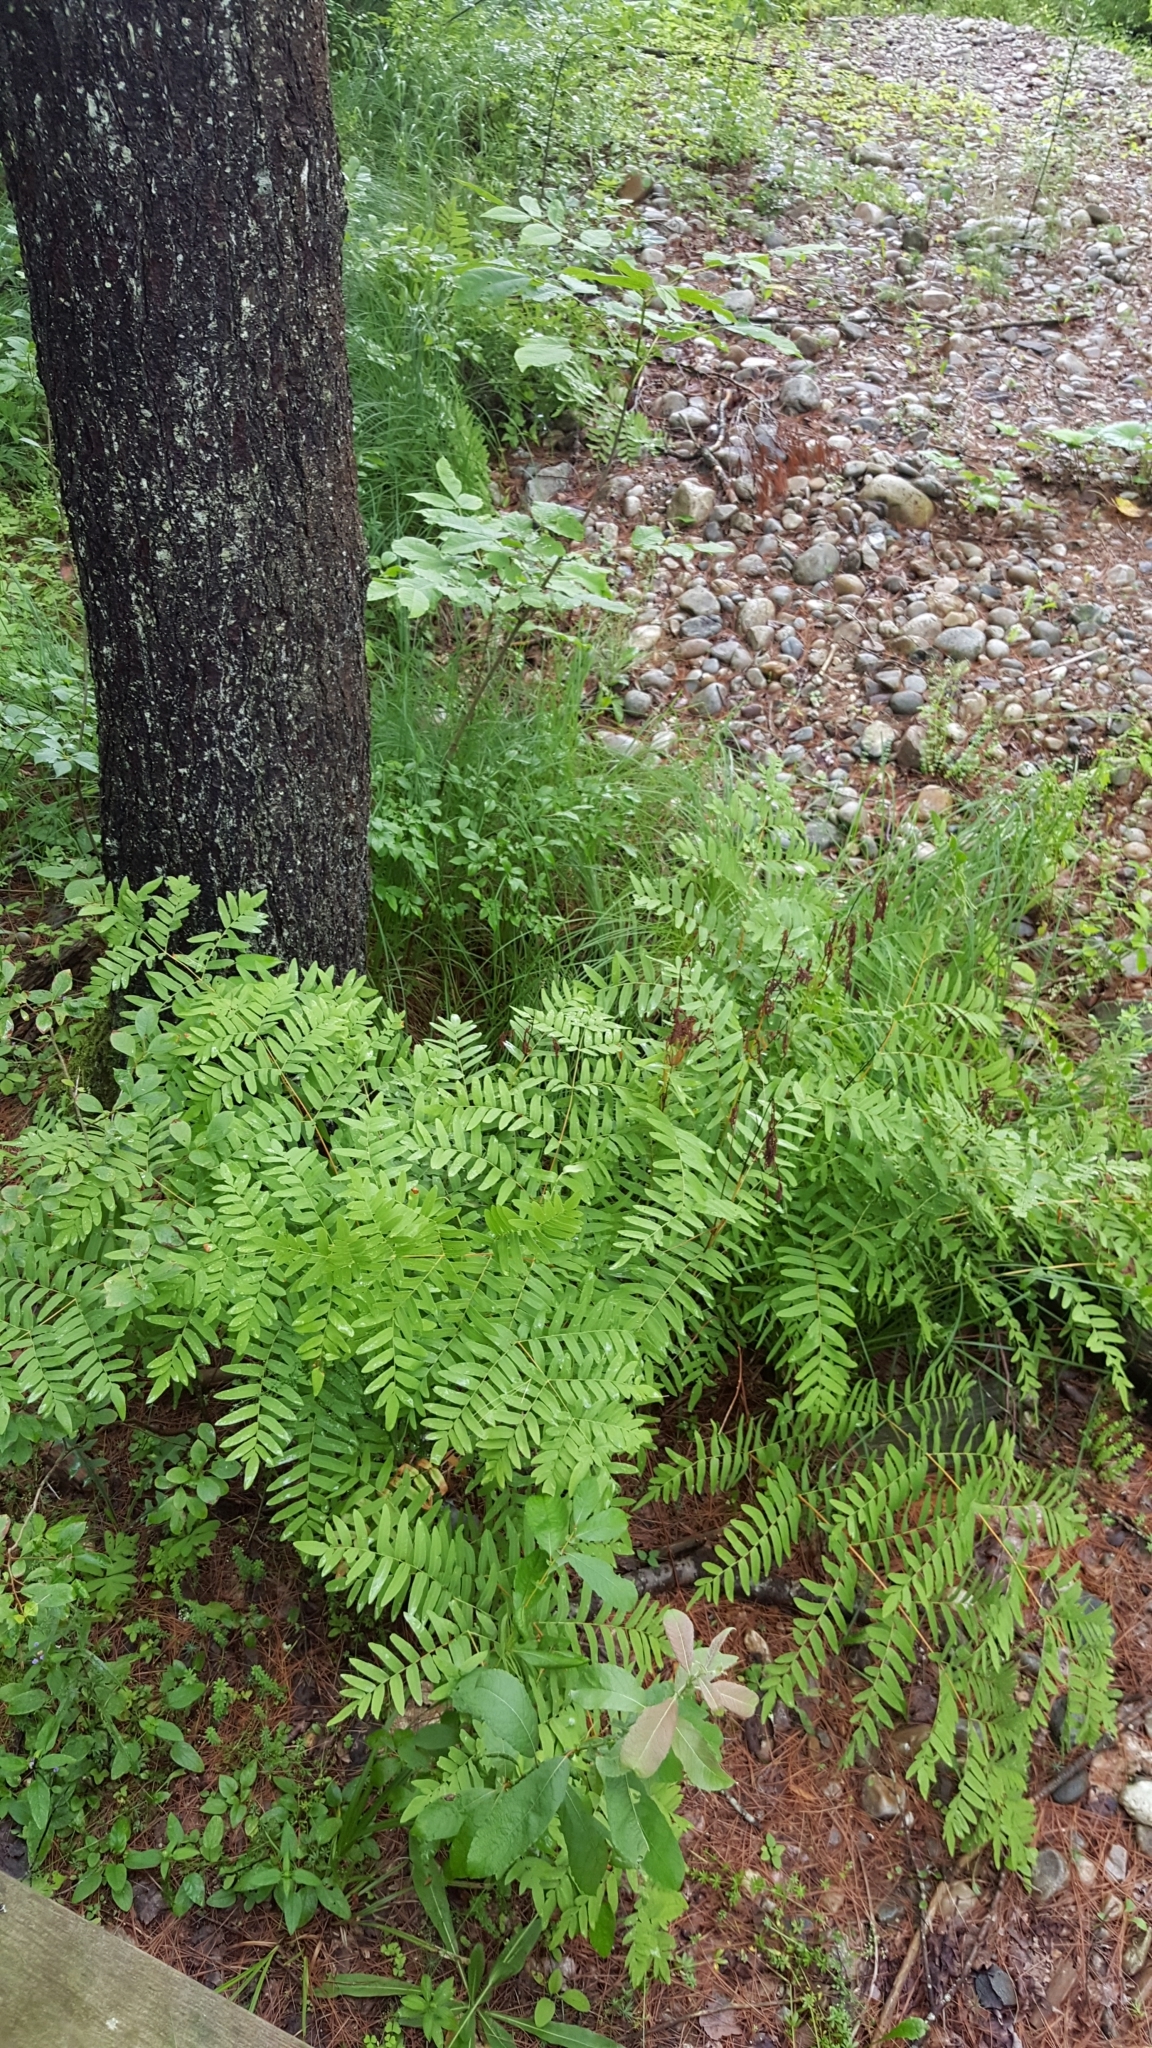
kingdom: Plantae
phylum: Tracheophyta
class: Polypodiopsida
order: Osmundales
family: Osmundaceae
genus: Osmunda
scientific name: Osmunda spectabilis
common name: American royal fern
